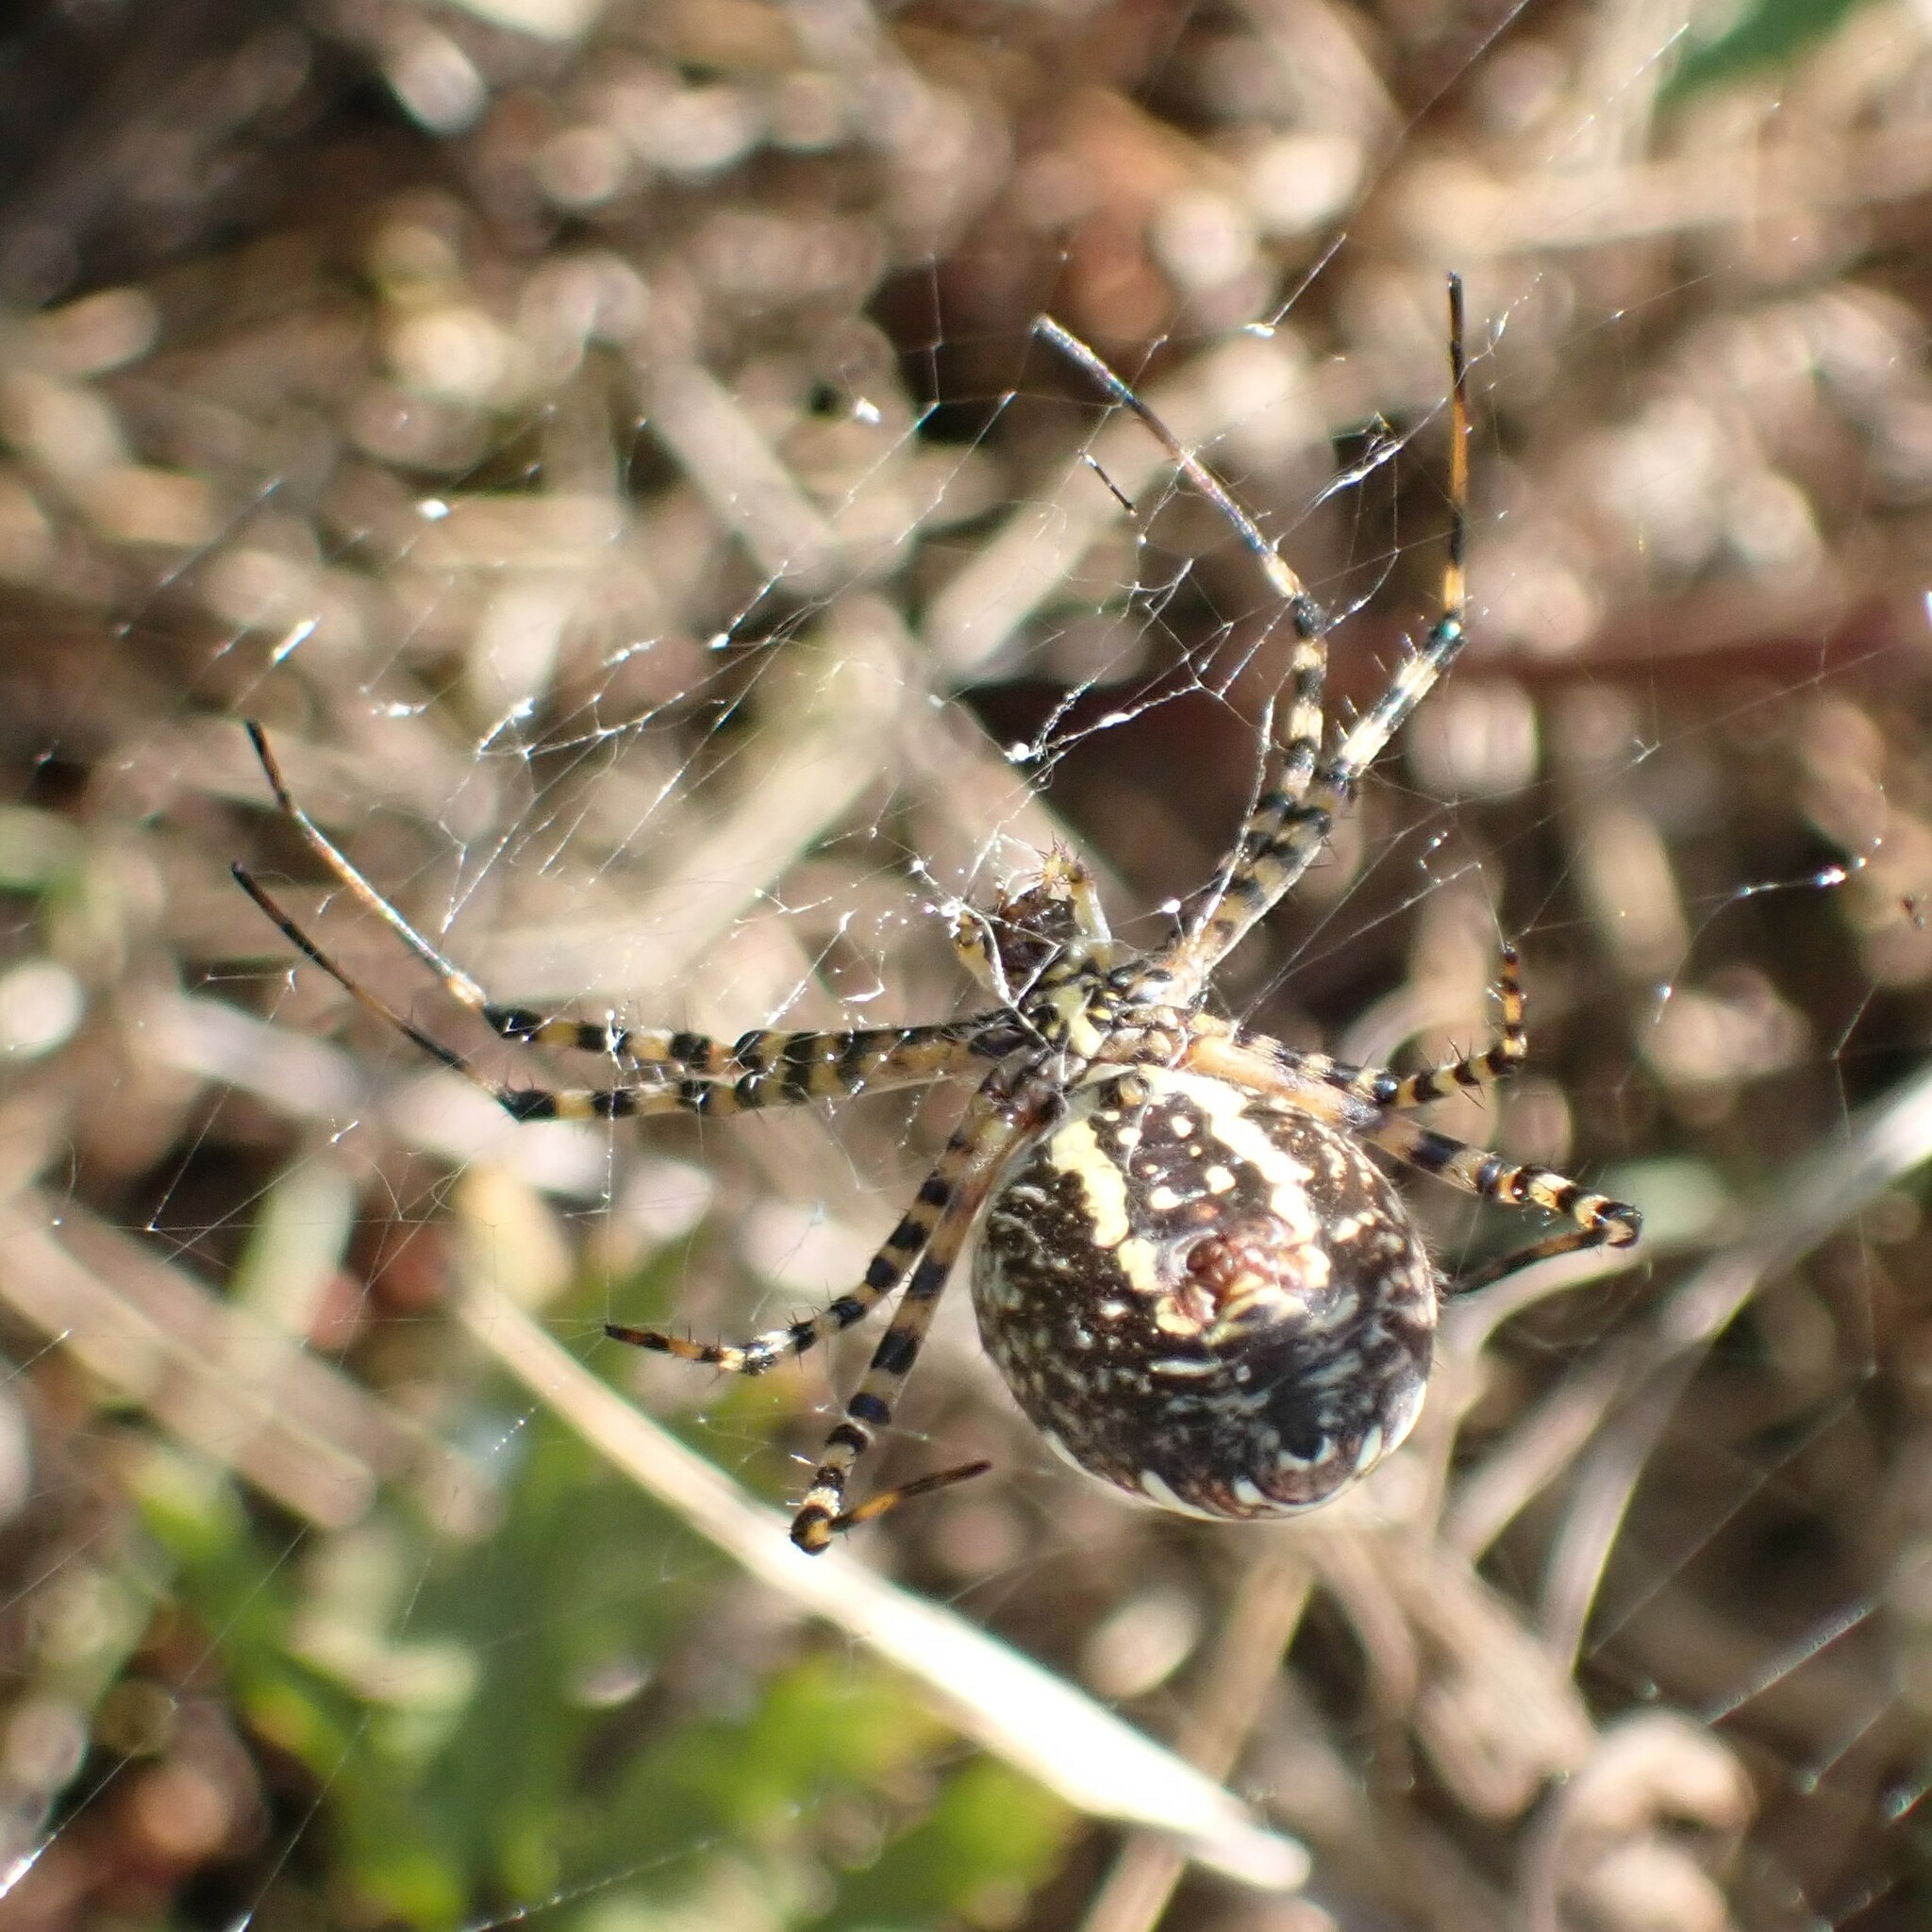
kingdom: Animalia
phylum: Arthropoda
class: Arachnida
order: Araneae
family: Araneidae
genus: Argiope
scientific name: Argiope trifasciata
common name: Banded garden spider
